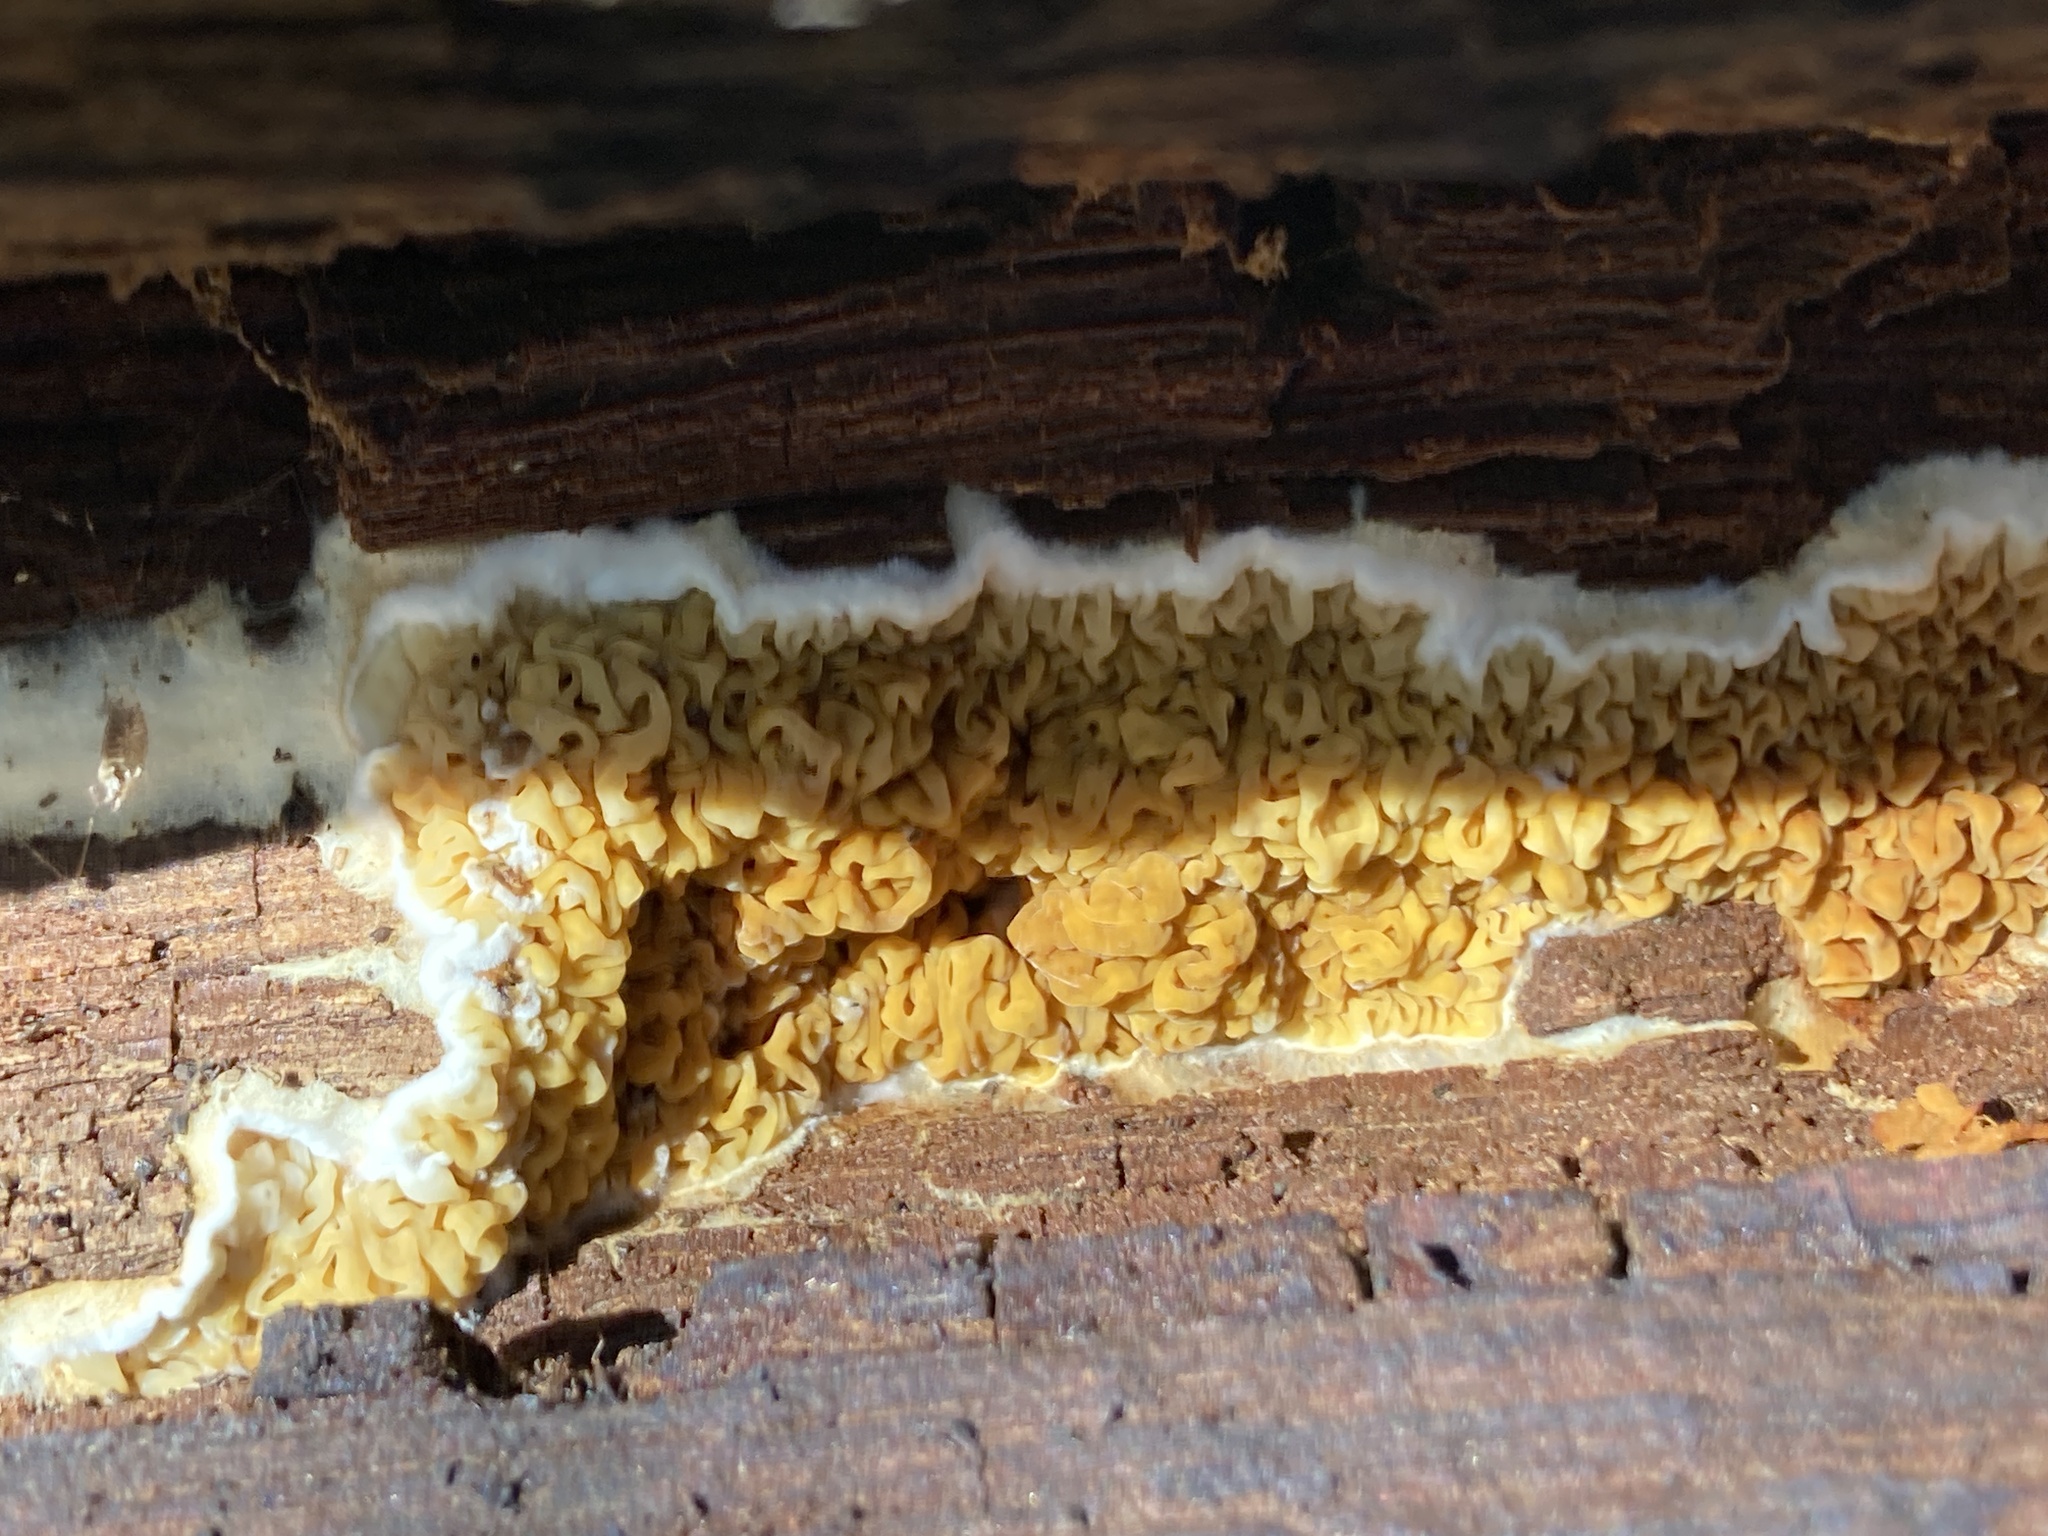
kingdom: Fungi
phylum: Basidiomycota
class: Agaricomycetes
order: Boletales
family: Serpulaceae
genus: Serpula
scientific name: Serpula himantioides
